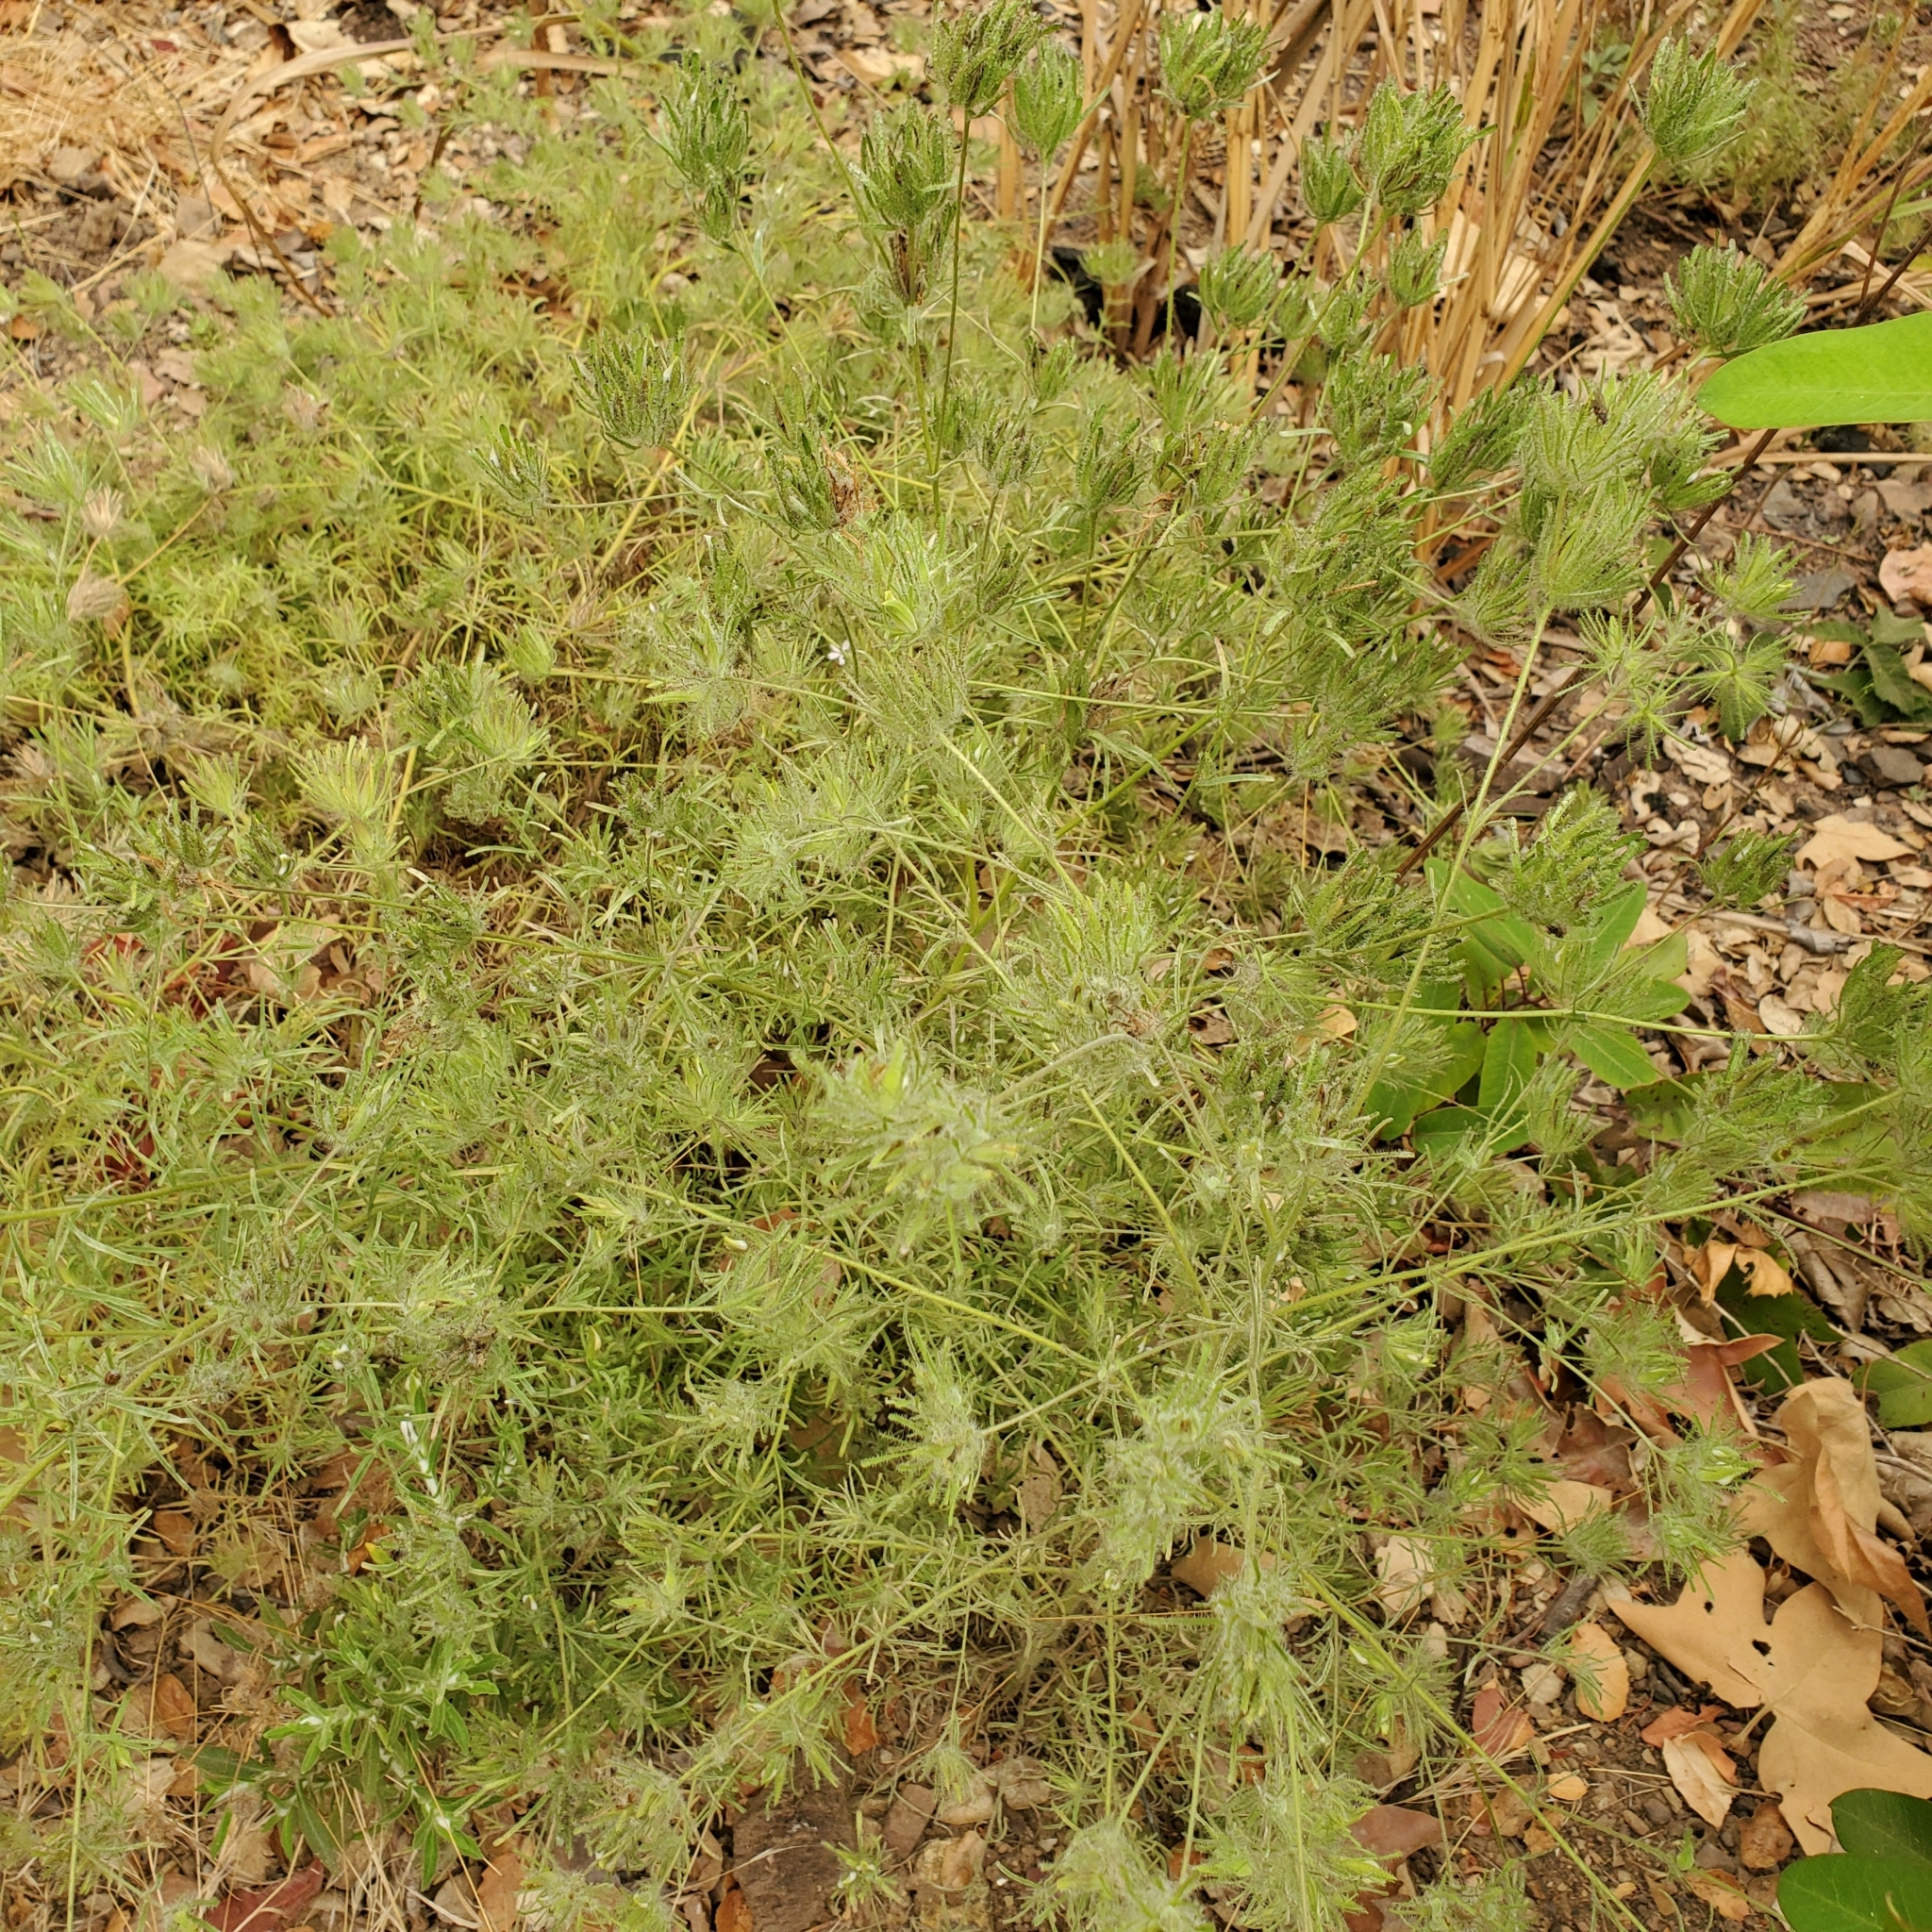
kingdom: Plantae
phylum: Tracheophyta
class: Magnoliopsida
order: Lamiales
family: Orobanchaceae
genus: Cordylanthus
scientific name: Cordylanthus rigidus
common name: Stiff-branch bird's-beak
